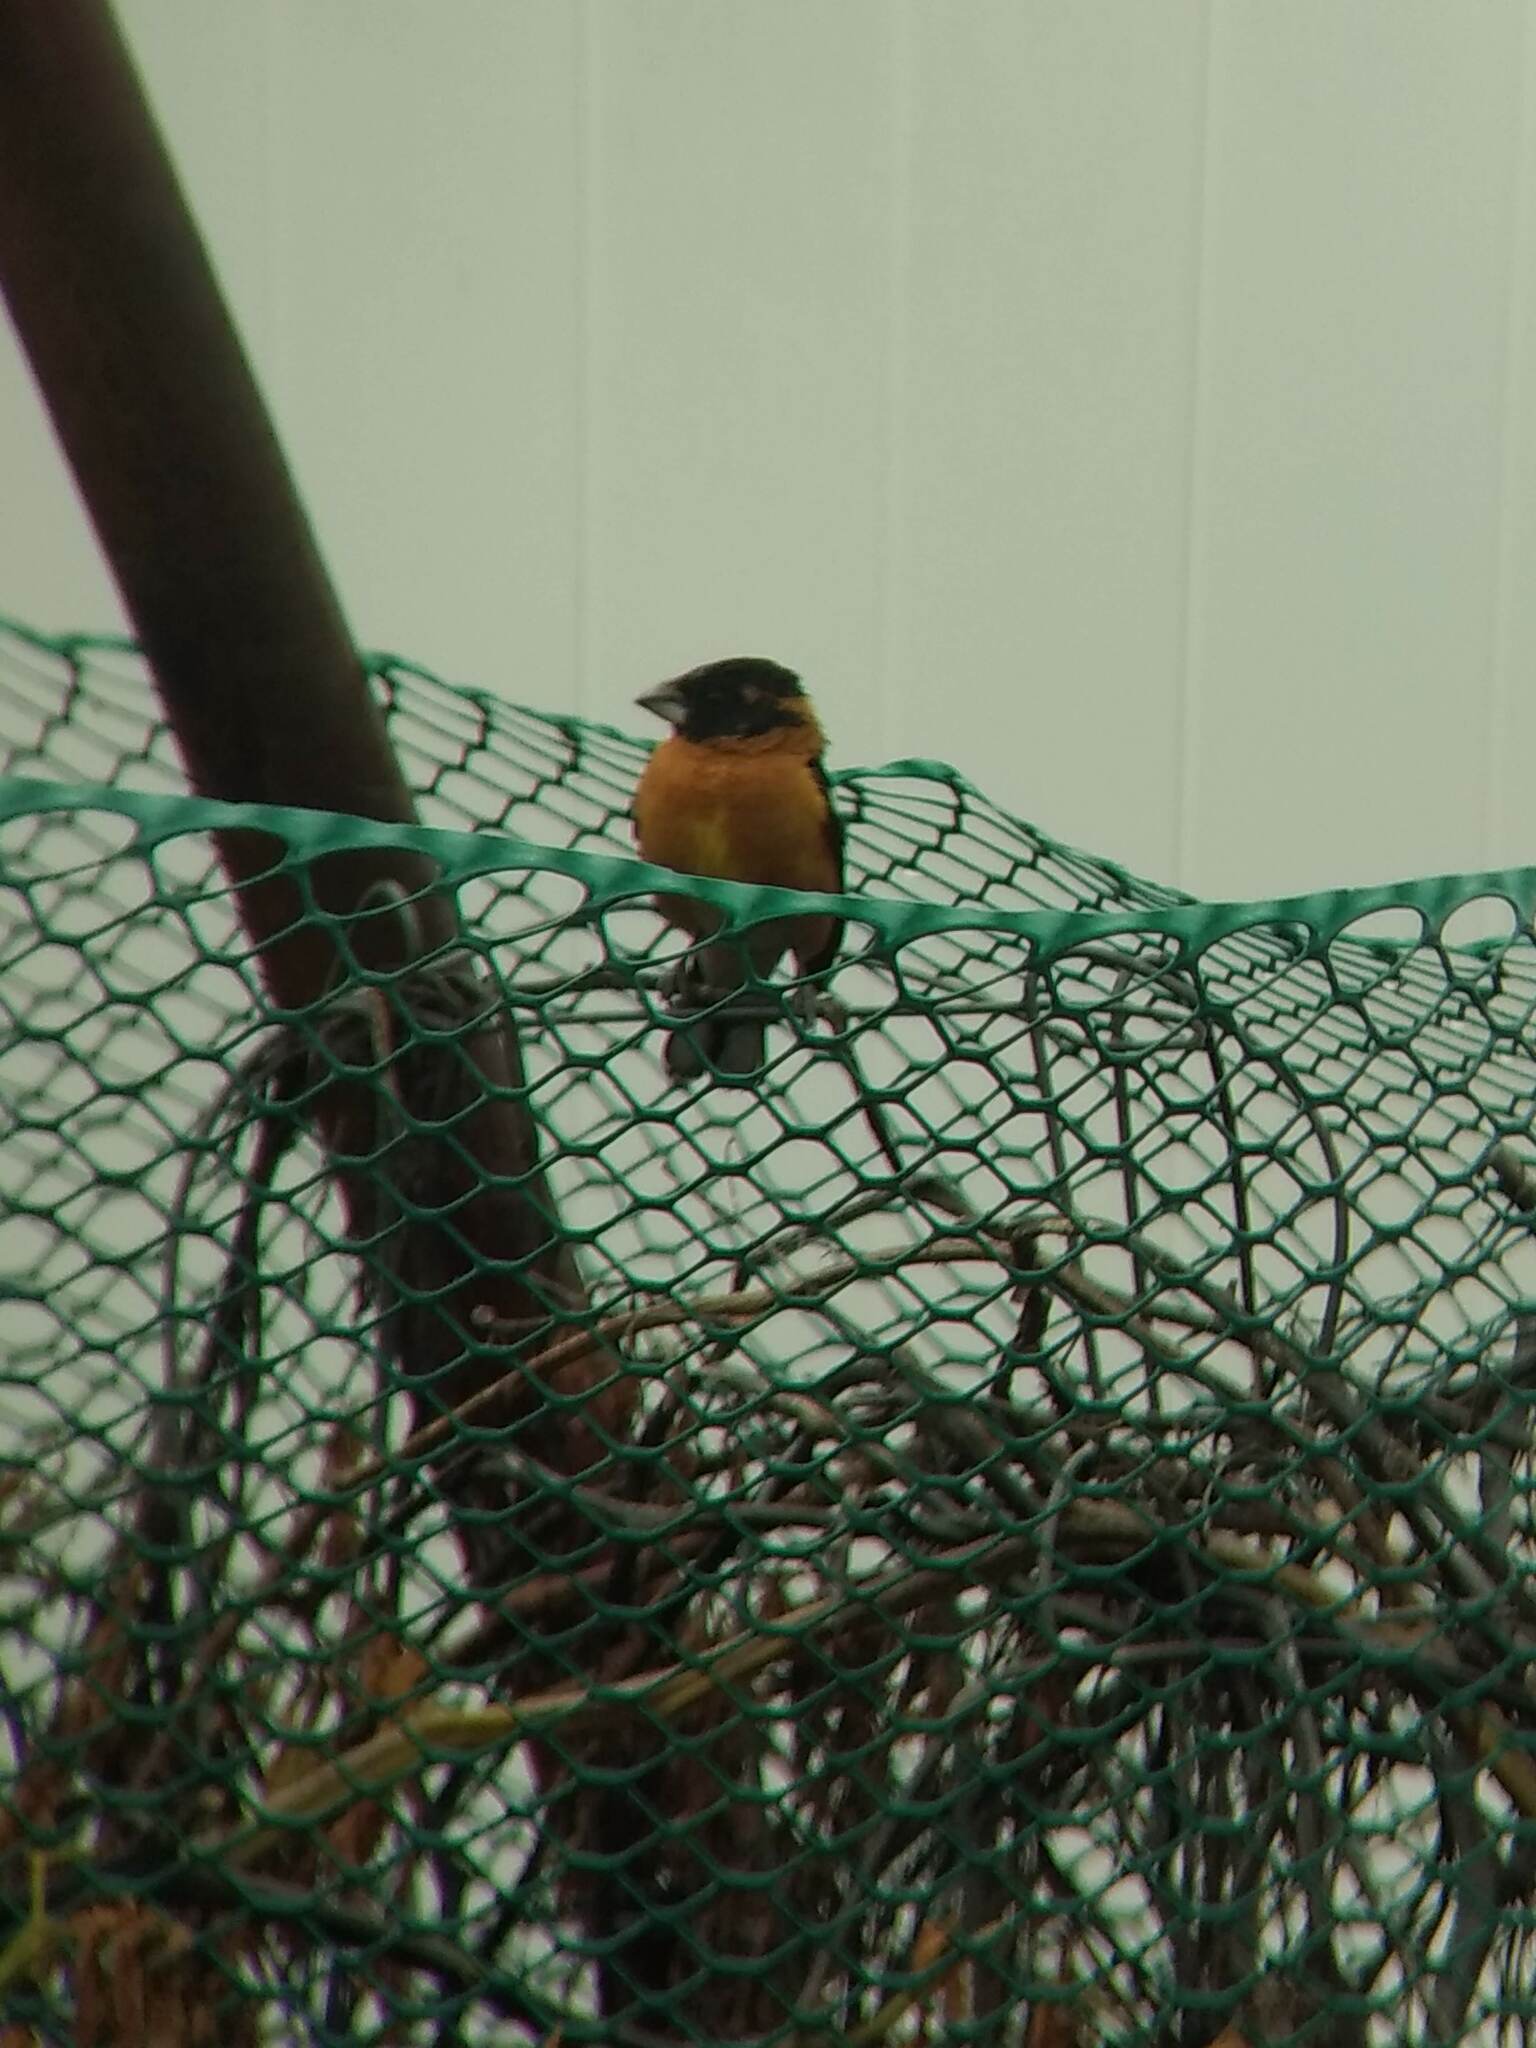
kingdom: Animalia
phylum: Chordata
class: Aves
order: Passeriformes
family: Cardinalidae
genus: Pheucticus
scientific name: Pheucticus melanocephalus
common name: Black-headed grosbeak
